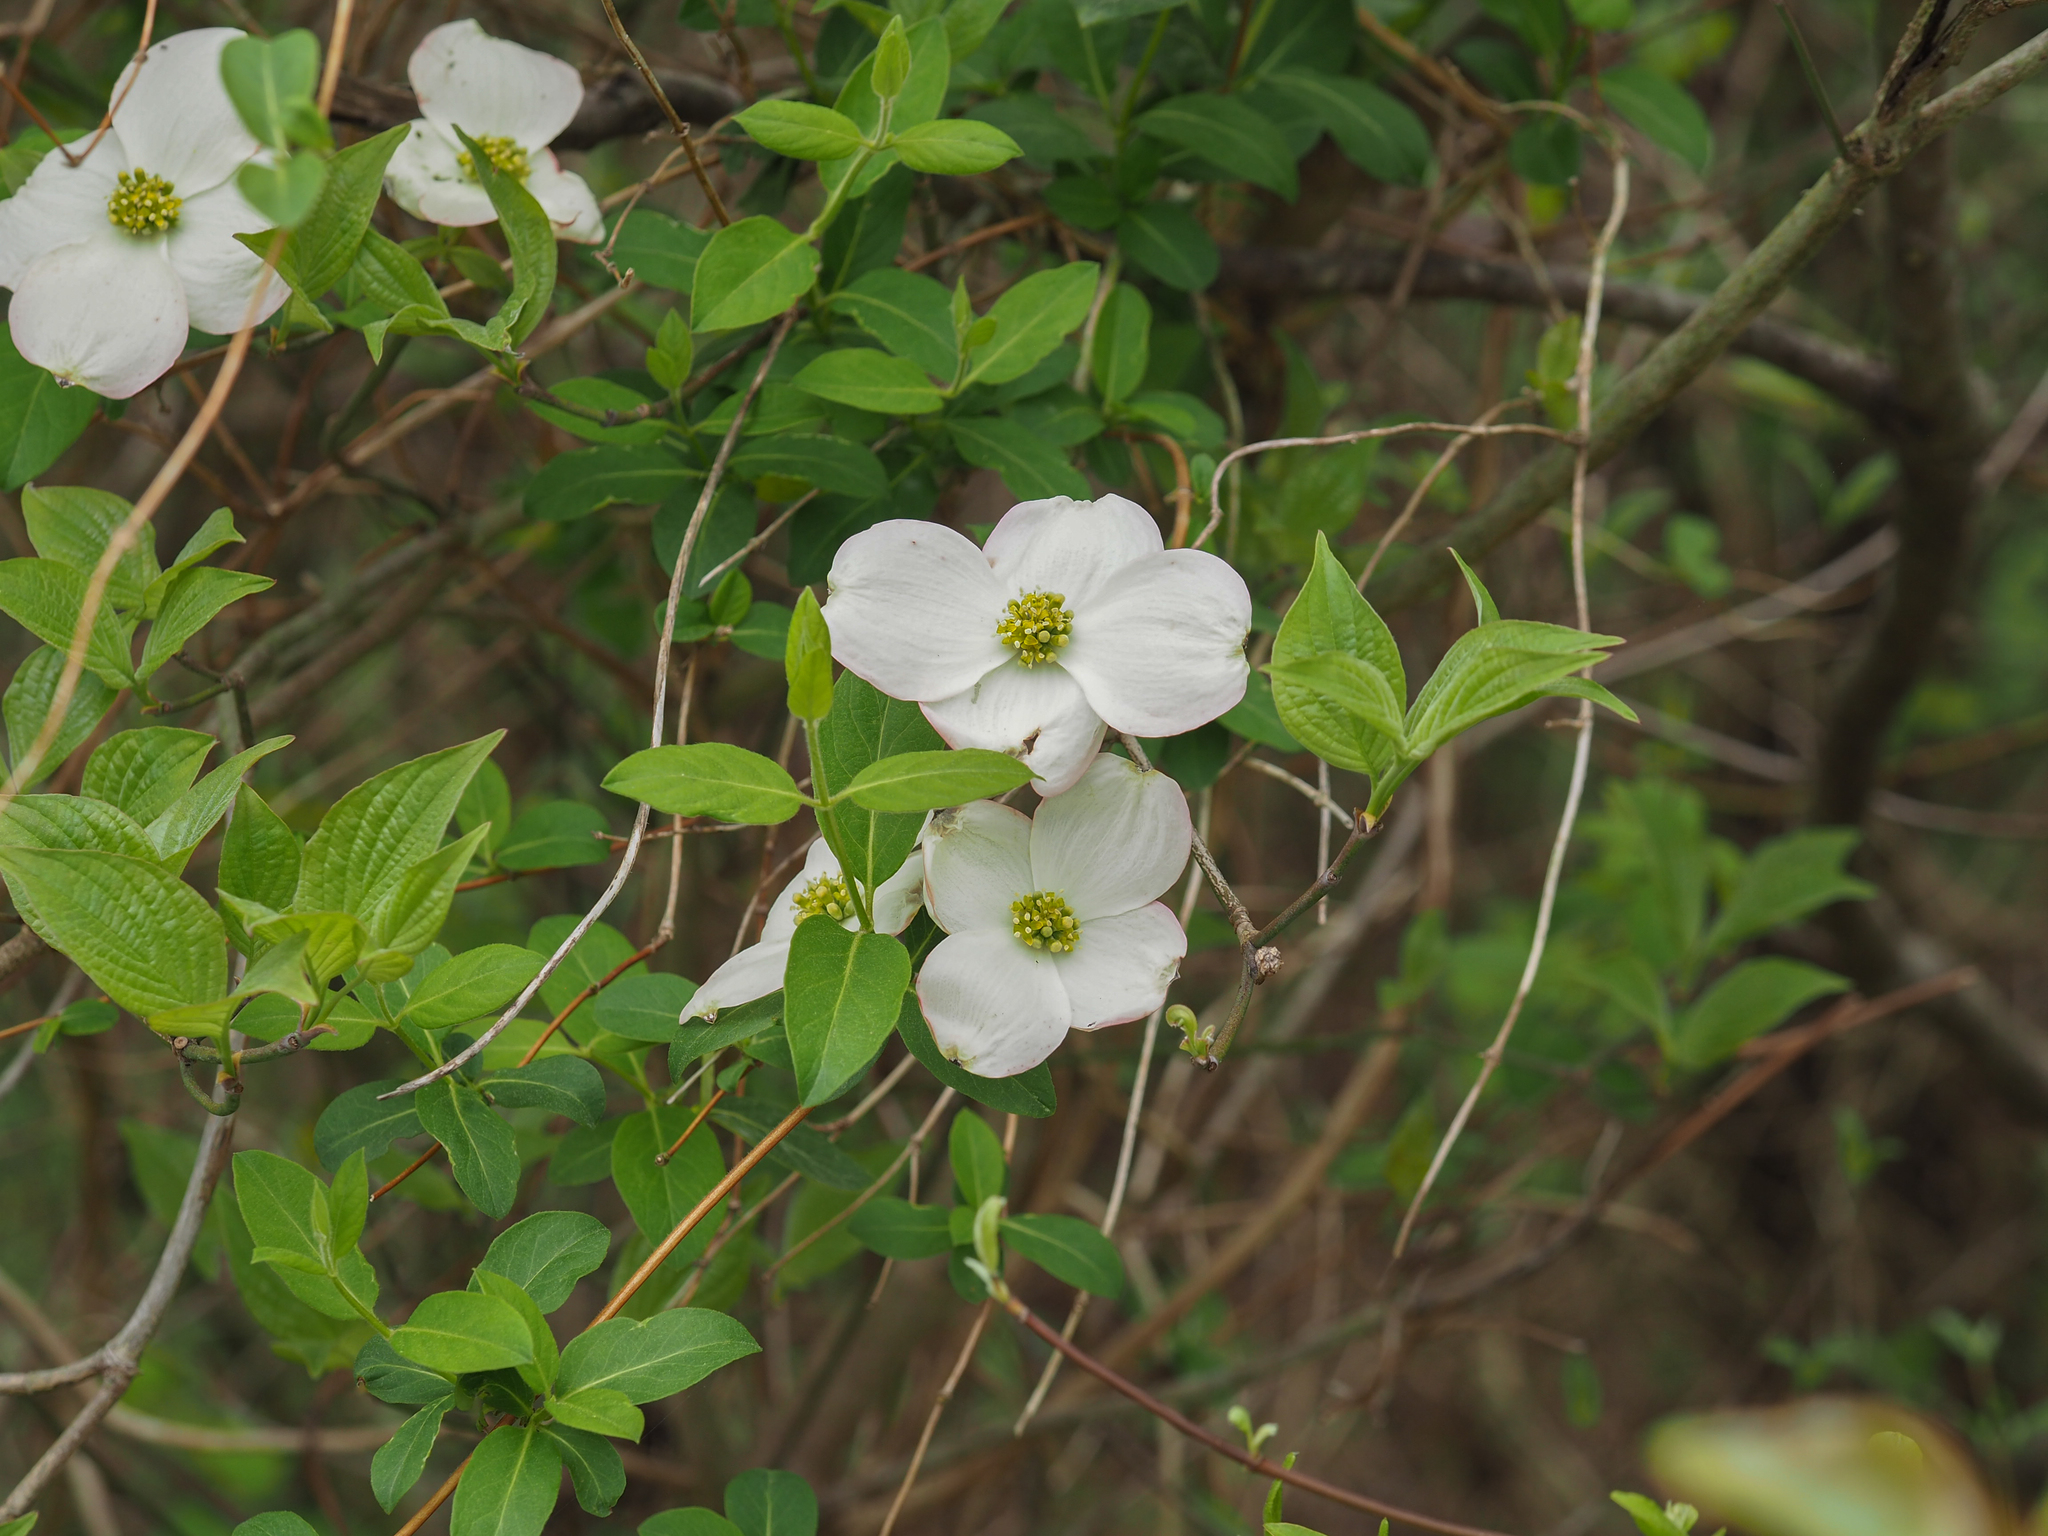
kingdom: Plantae
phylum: Tracheophyta
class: Magnoliopsida
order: Cornales
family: Cornaceae
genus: Cornus
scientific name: Cornus florida
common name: Flowering dogwood
